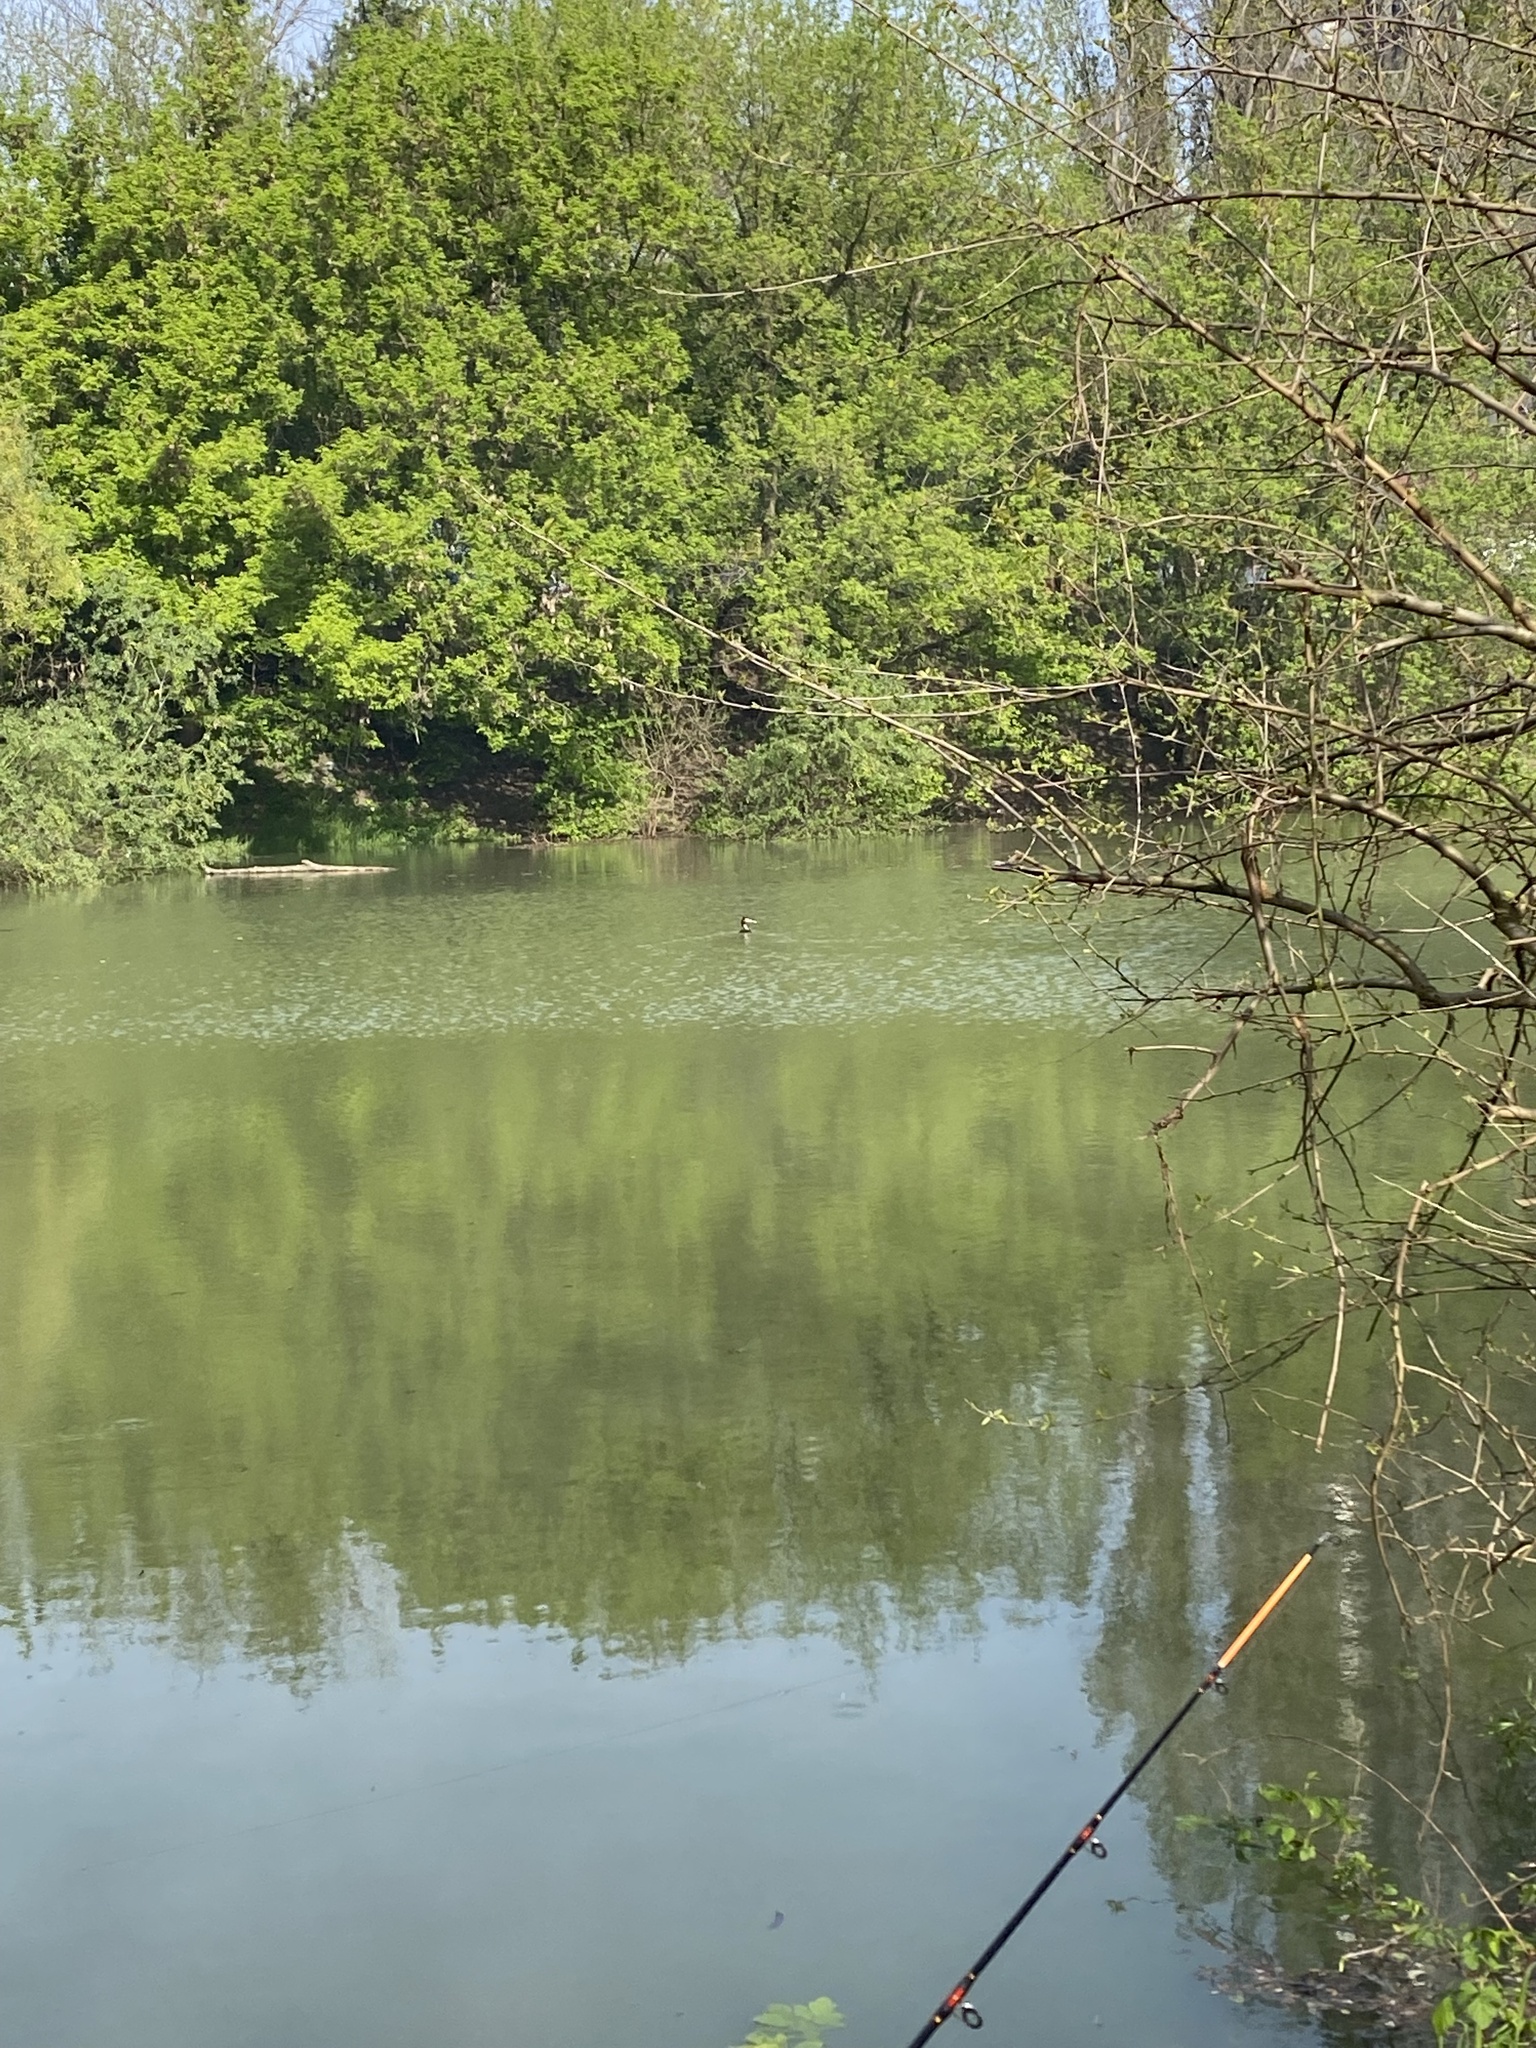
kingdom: Animalia
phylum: Chordata
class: Aves
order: Podicipediformes
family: Podicipedidae
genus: Podiceps
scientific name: Podiceps cristatus
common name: Great crested grebe
